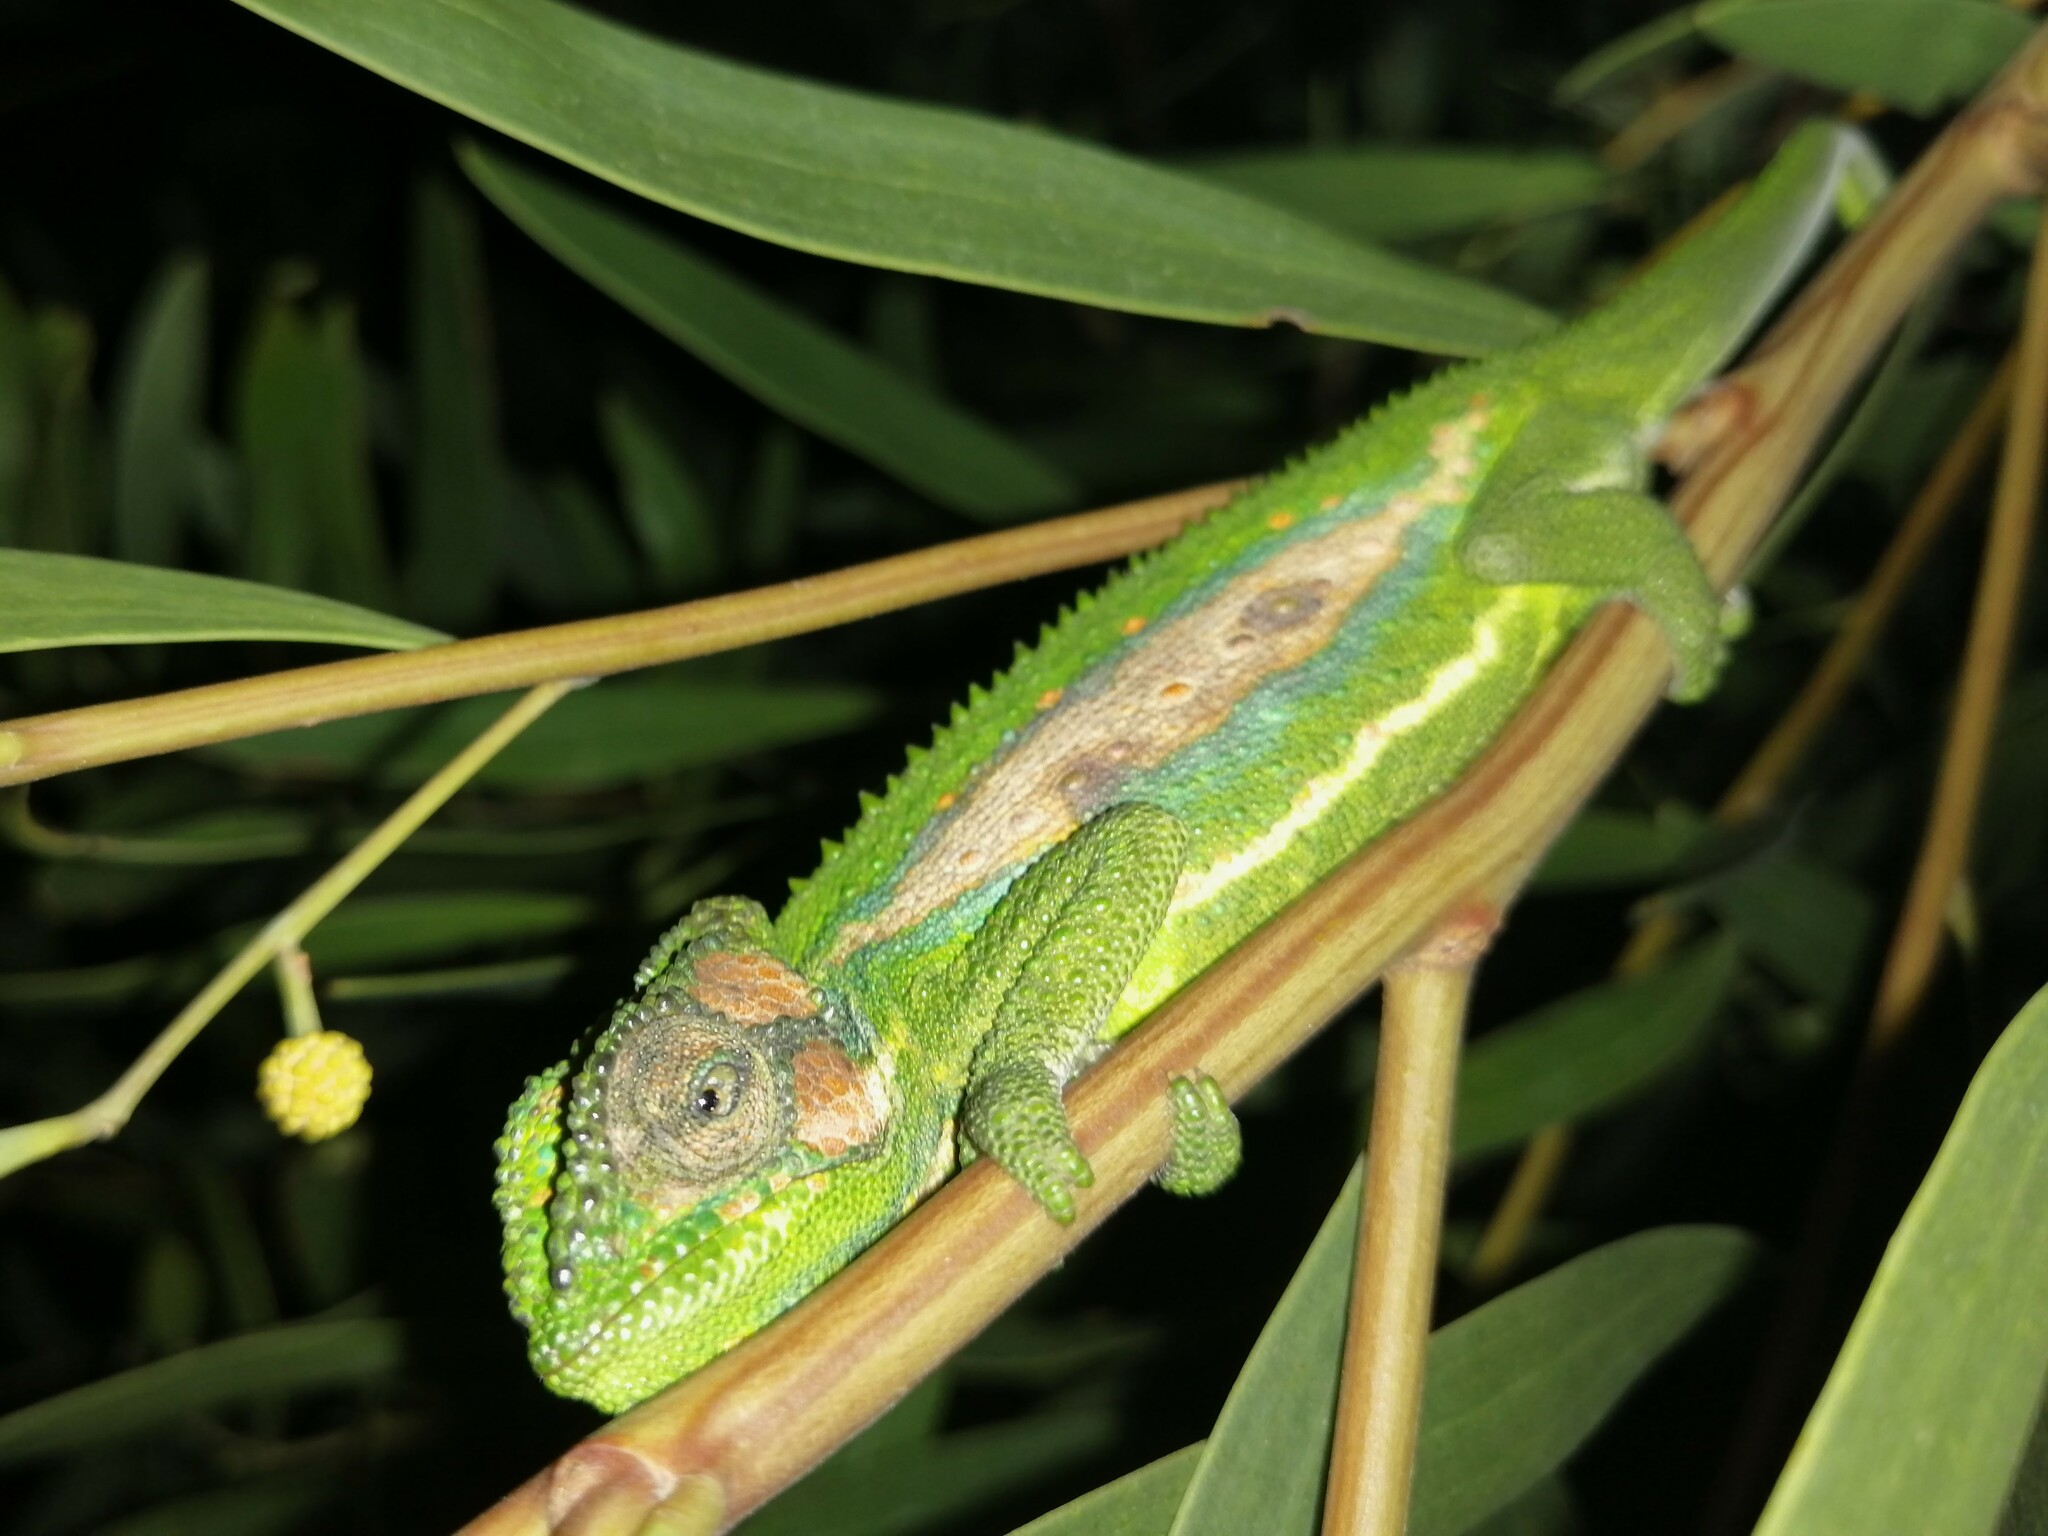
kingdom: Animalia
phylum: Chordata
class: Squamata
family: Chamaeleonidae
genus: Bradypodion
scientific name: Bradypodion pumilum
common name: Cape dwarf chameleon
